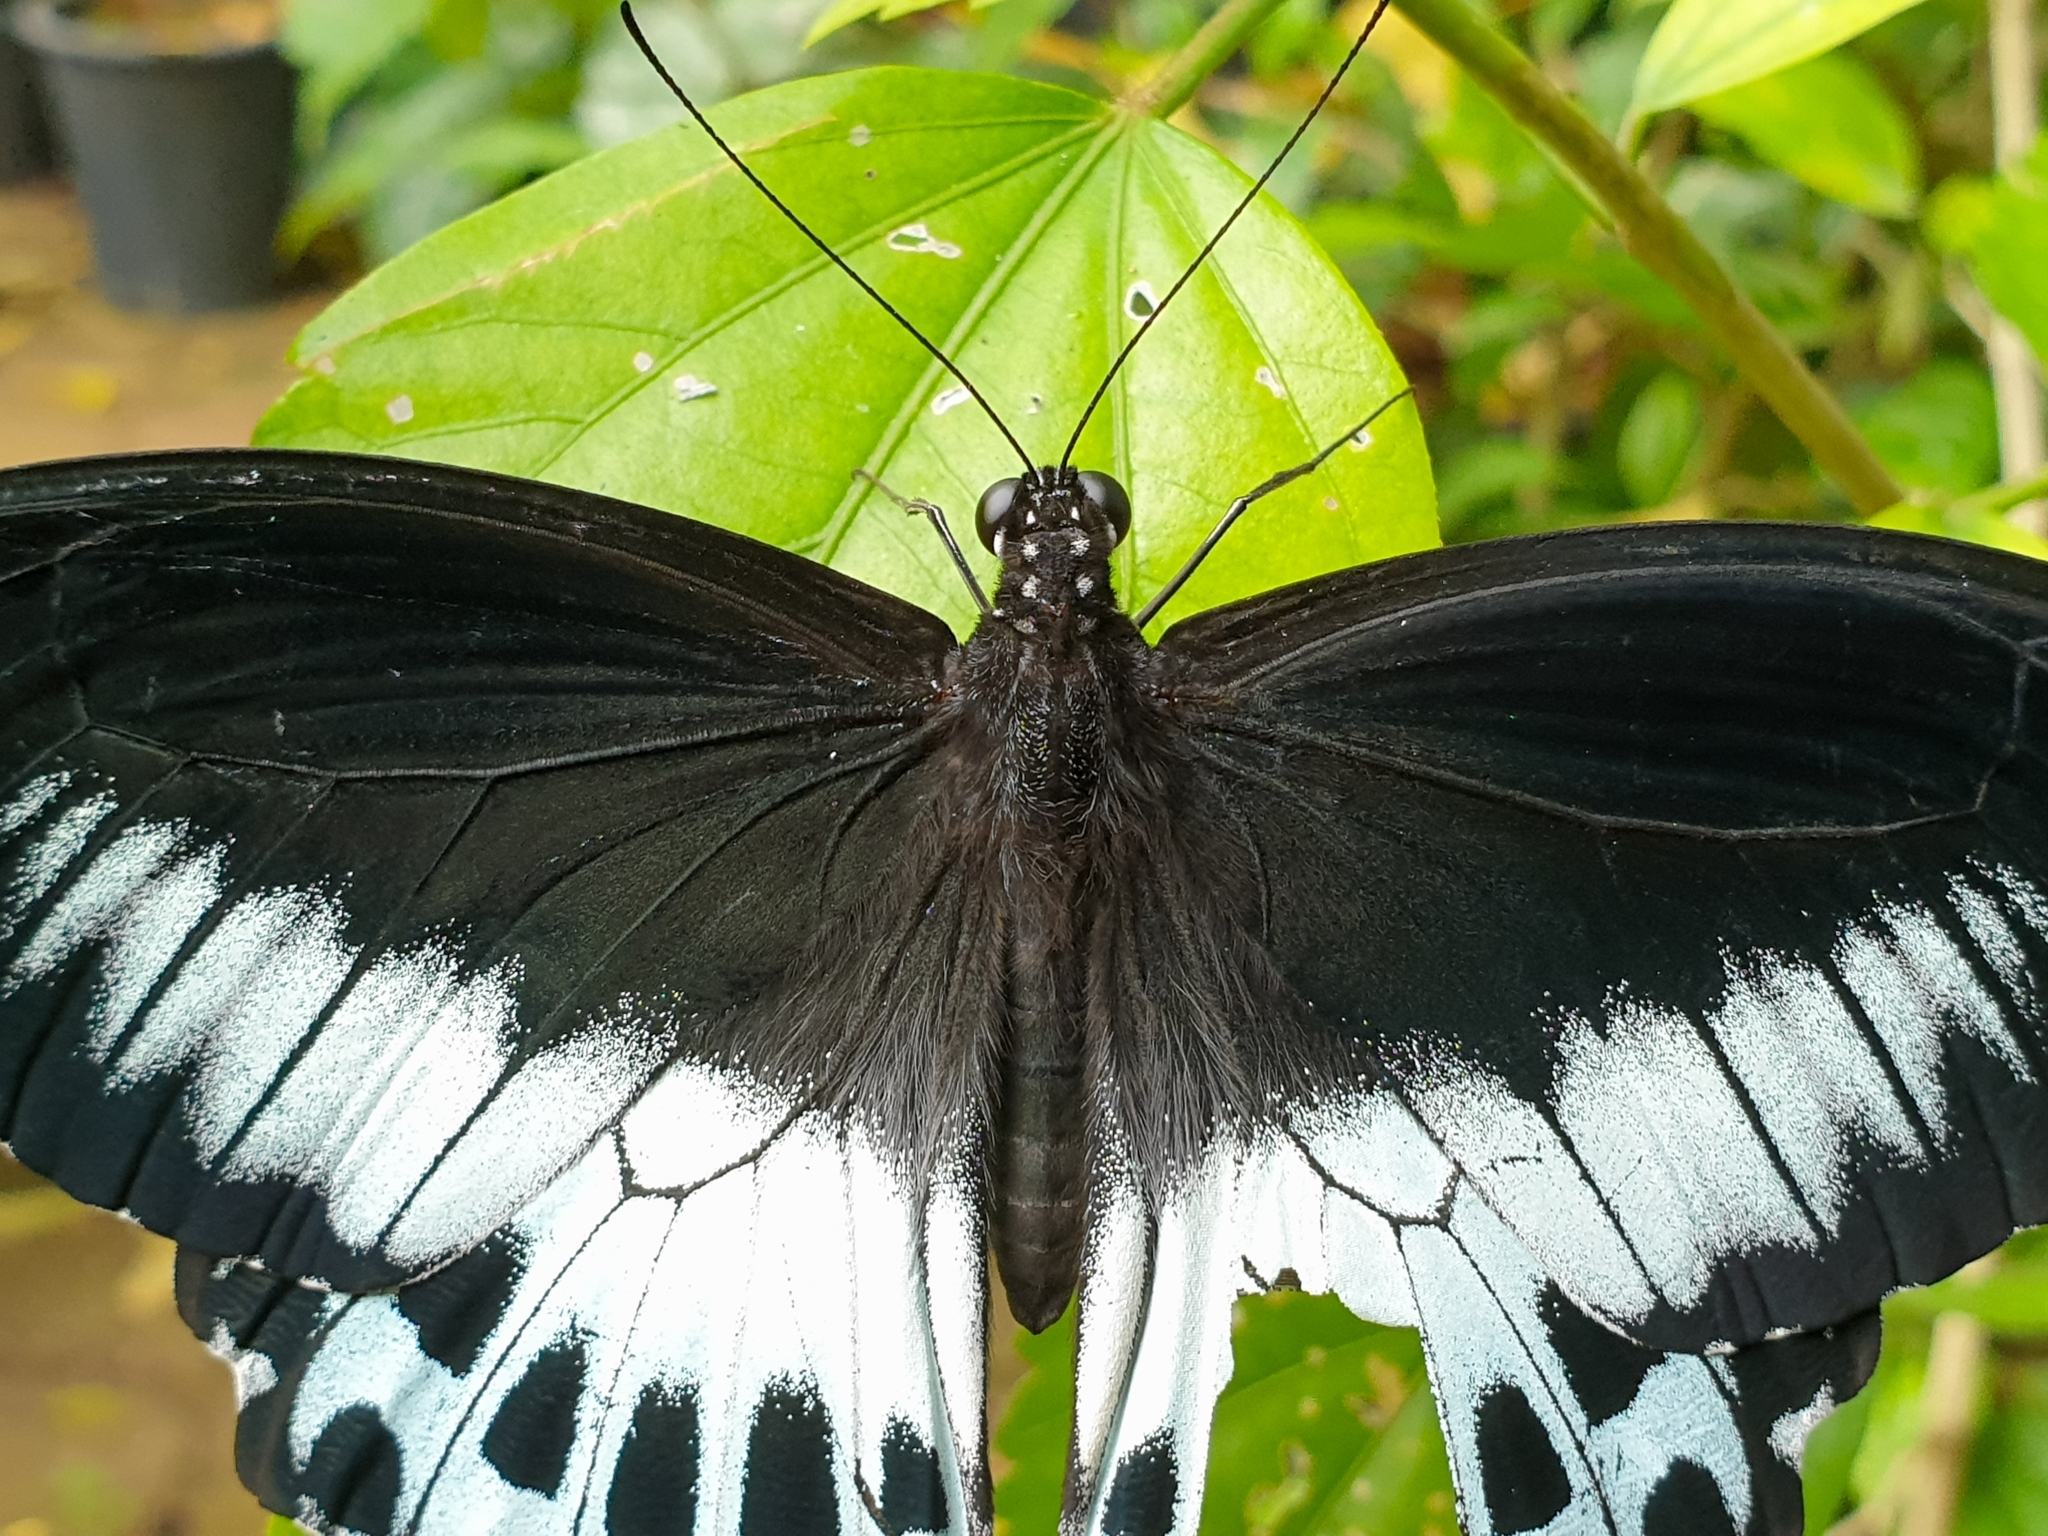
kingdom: Animalia
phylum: Arthropoda
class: Insecta
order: Lepidoptera
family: Papilionidae
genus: Papilio
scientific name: Papilio memnon
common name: Great mormon
